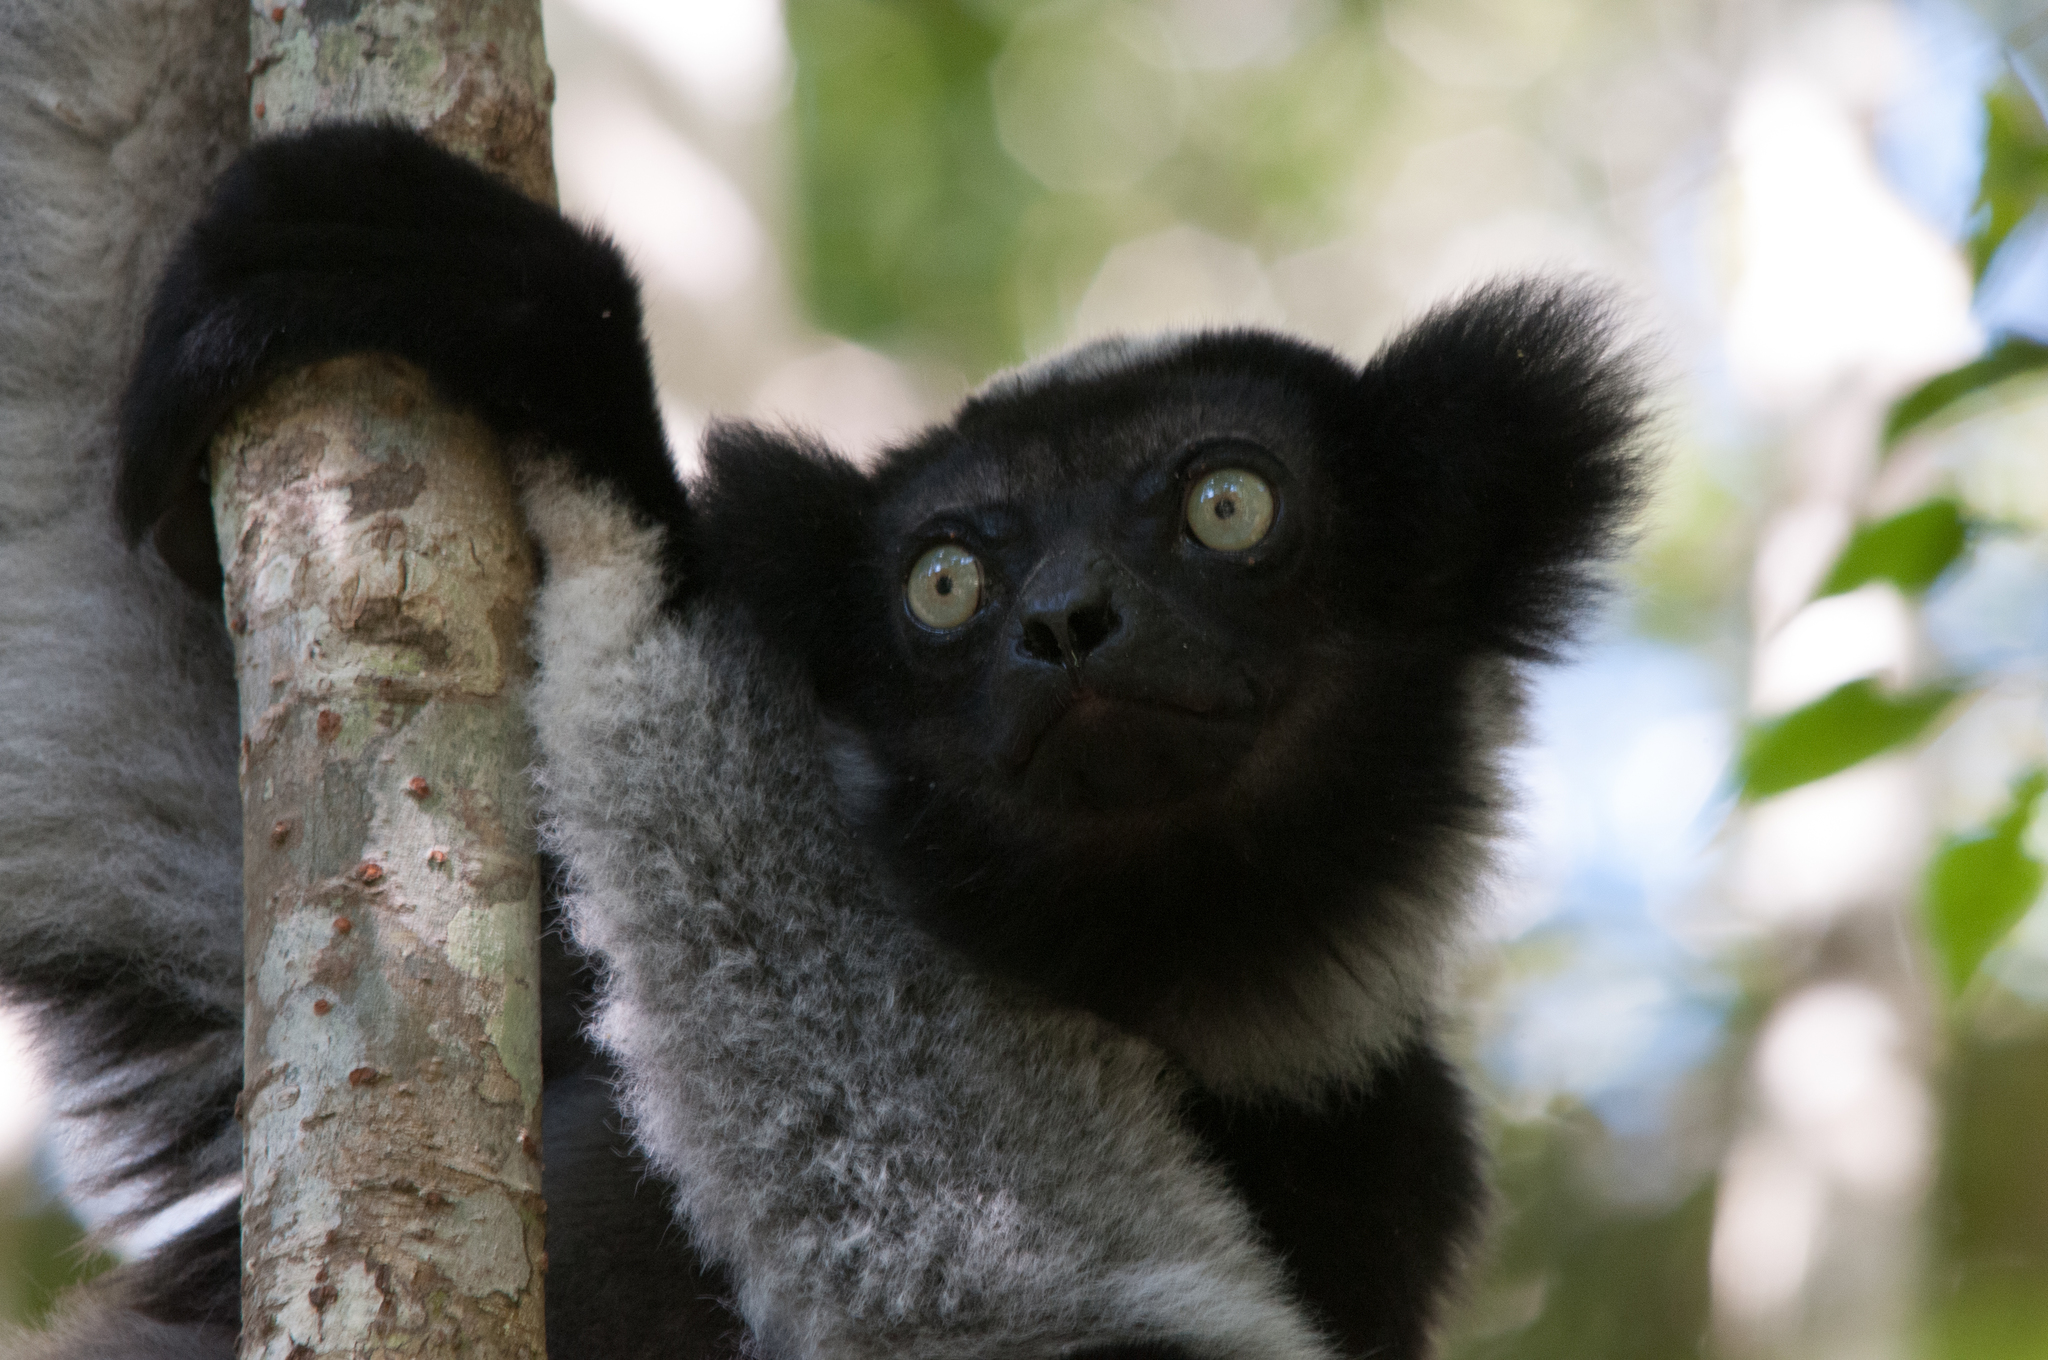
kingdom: Animalia
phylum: Chordata
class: Mammalia
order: Primates
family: Indriidae
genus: Indri
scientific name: Indri indri
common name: Indri
